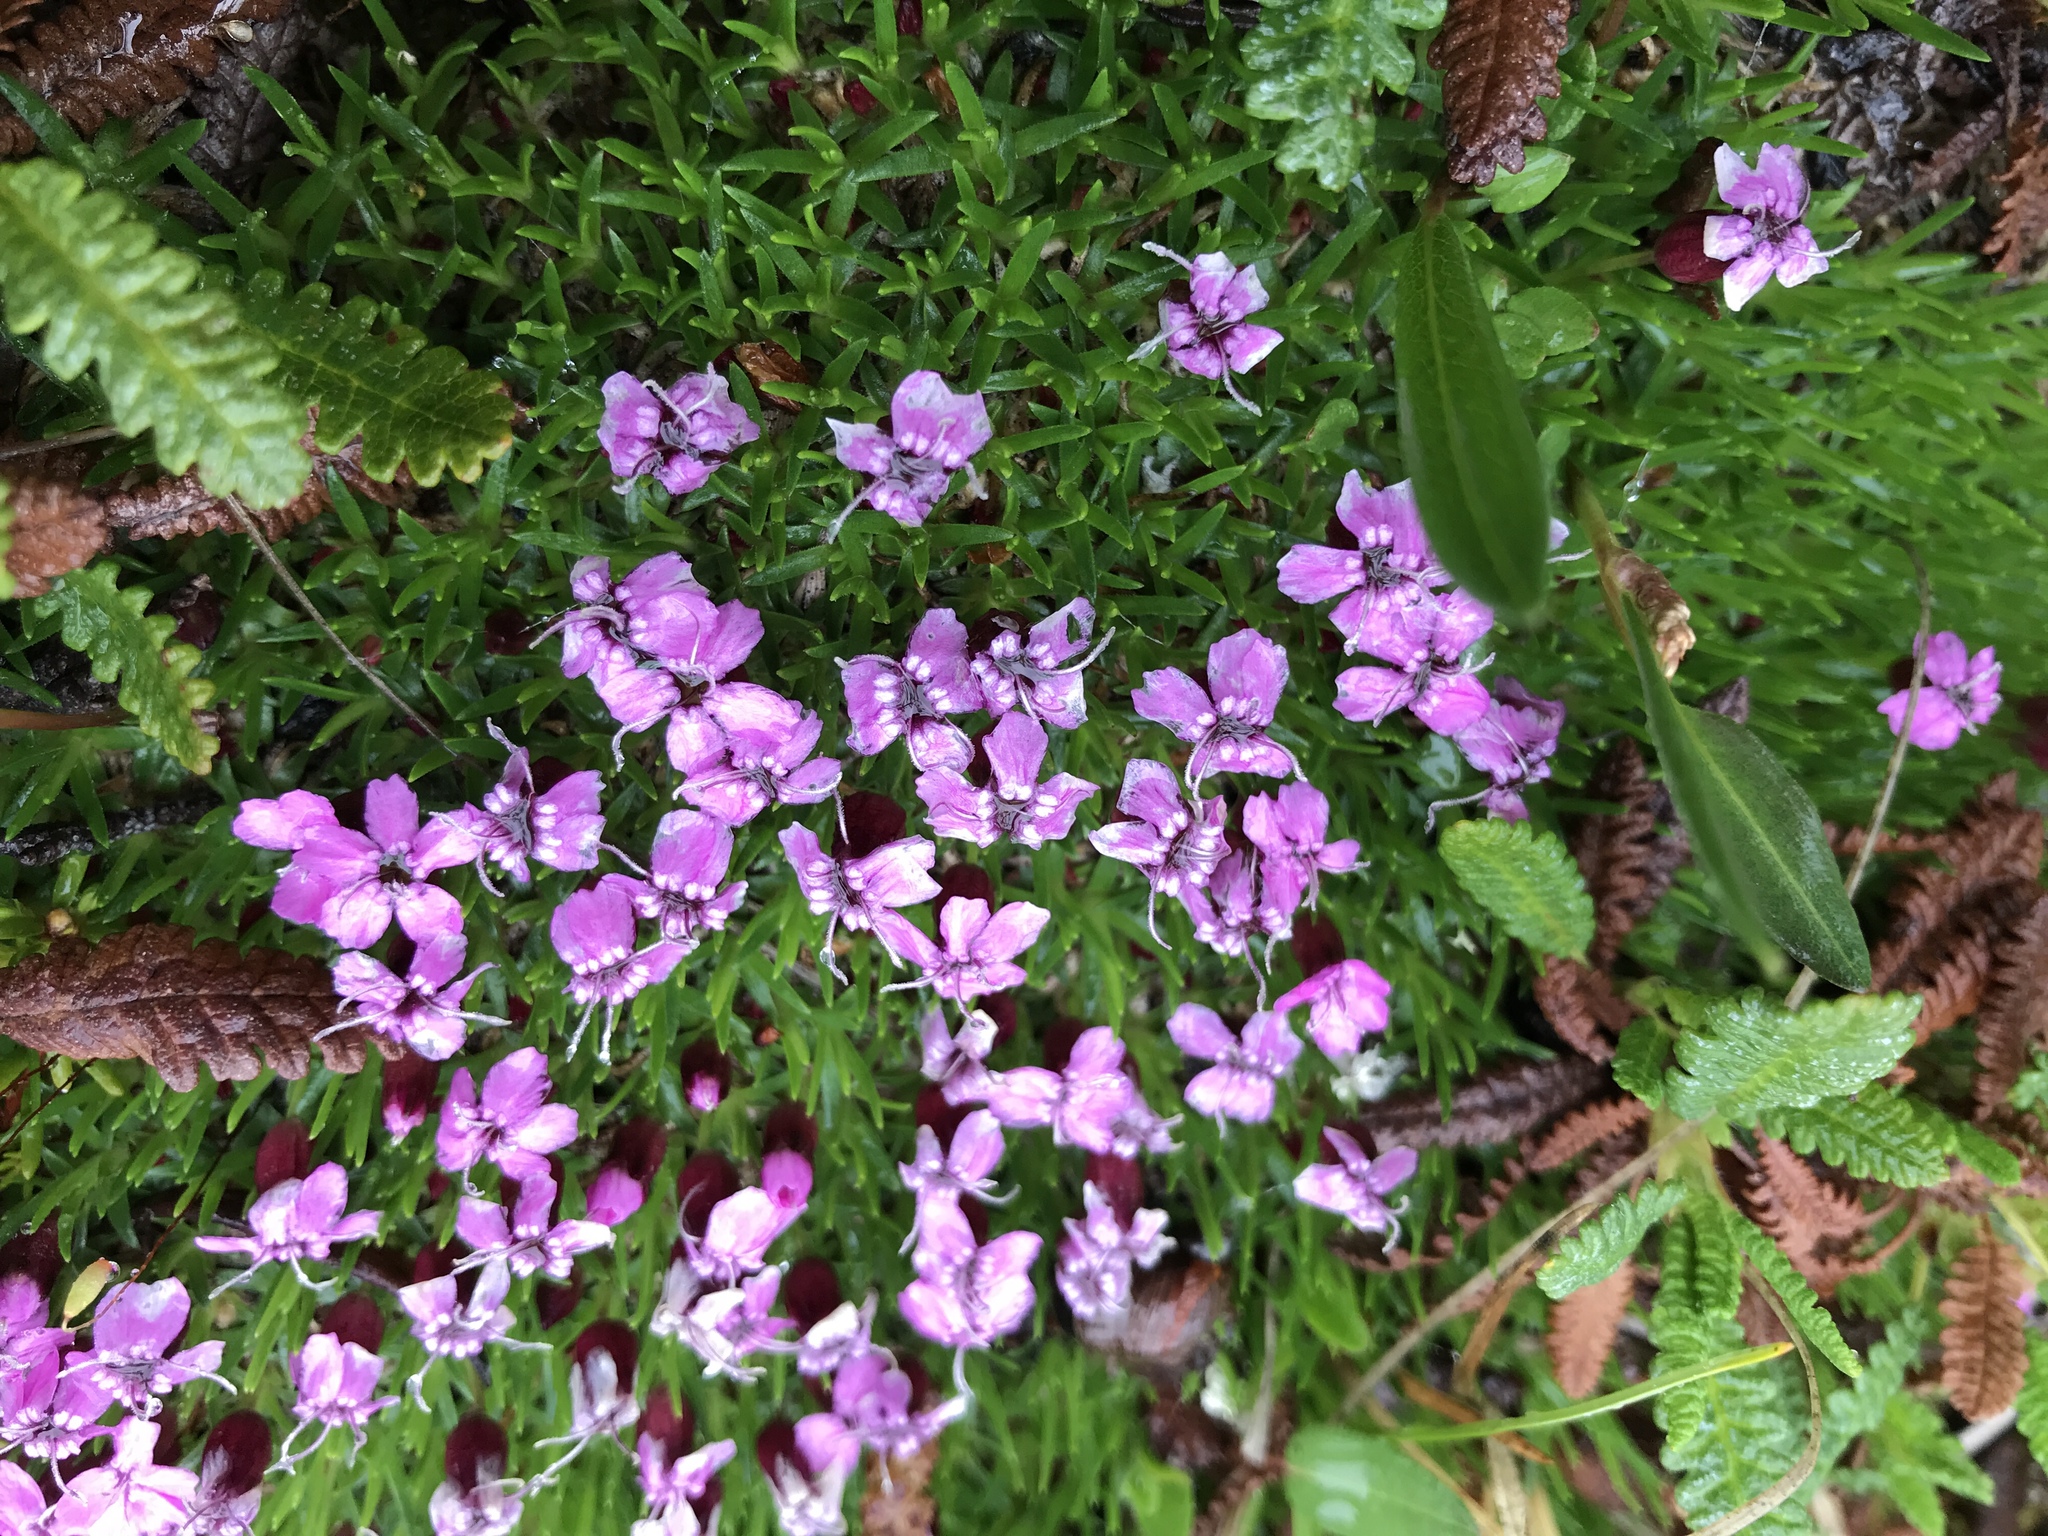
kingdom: Plantae
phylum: Tracheophyta
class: Magnoliopsida
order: Caryophyllales
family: Caryophyllaceae
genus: Silene
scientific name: Silene acaulis
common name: Moss campion
